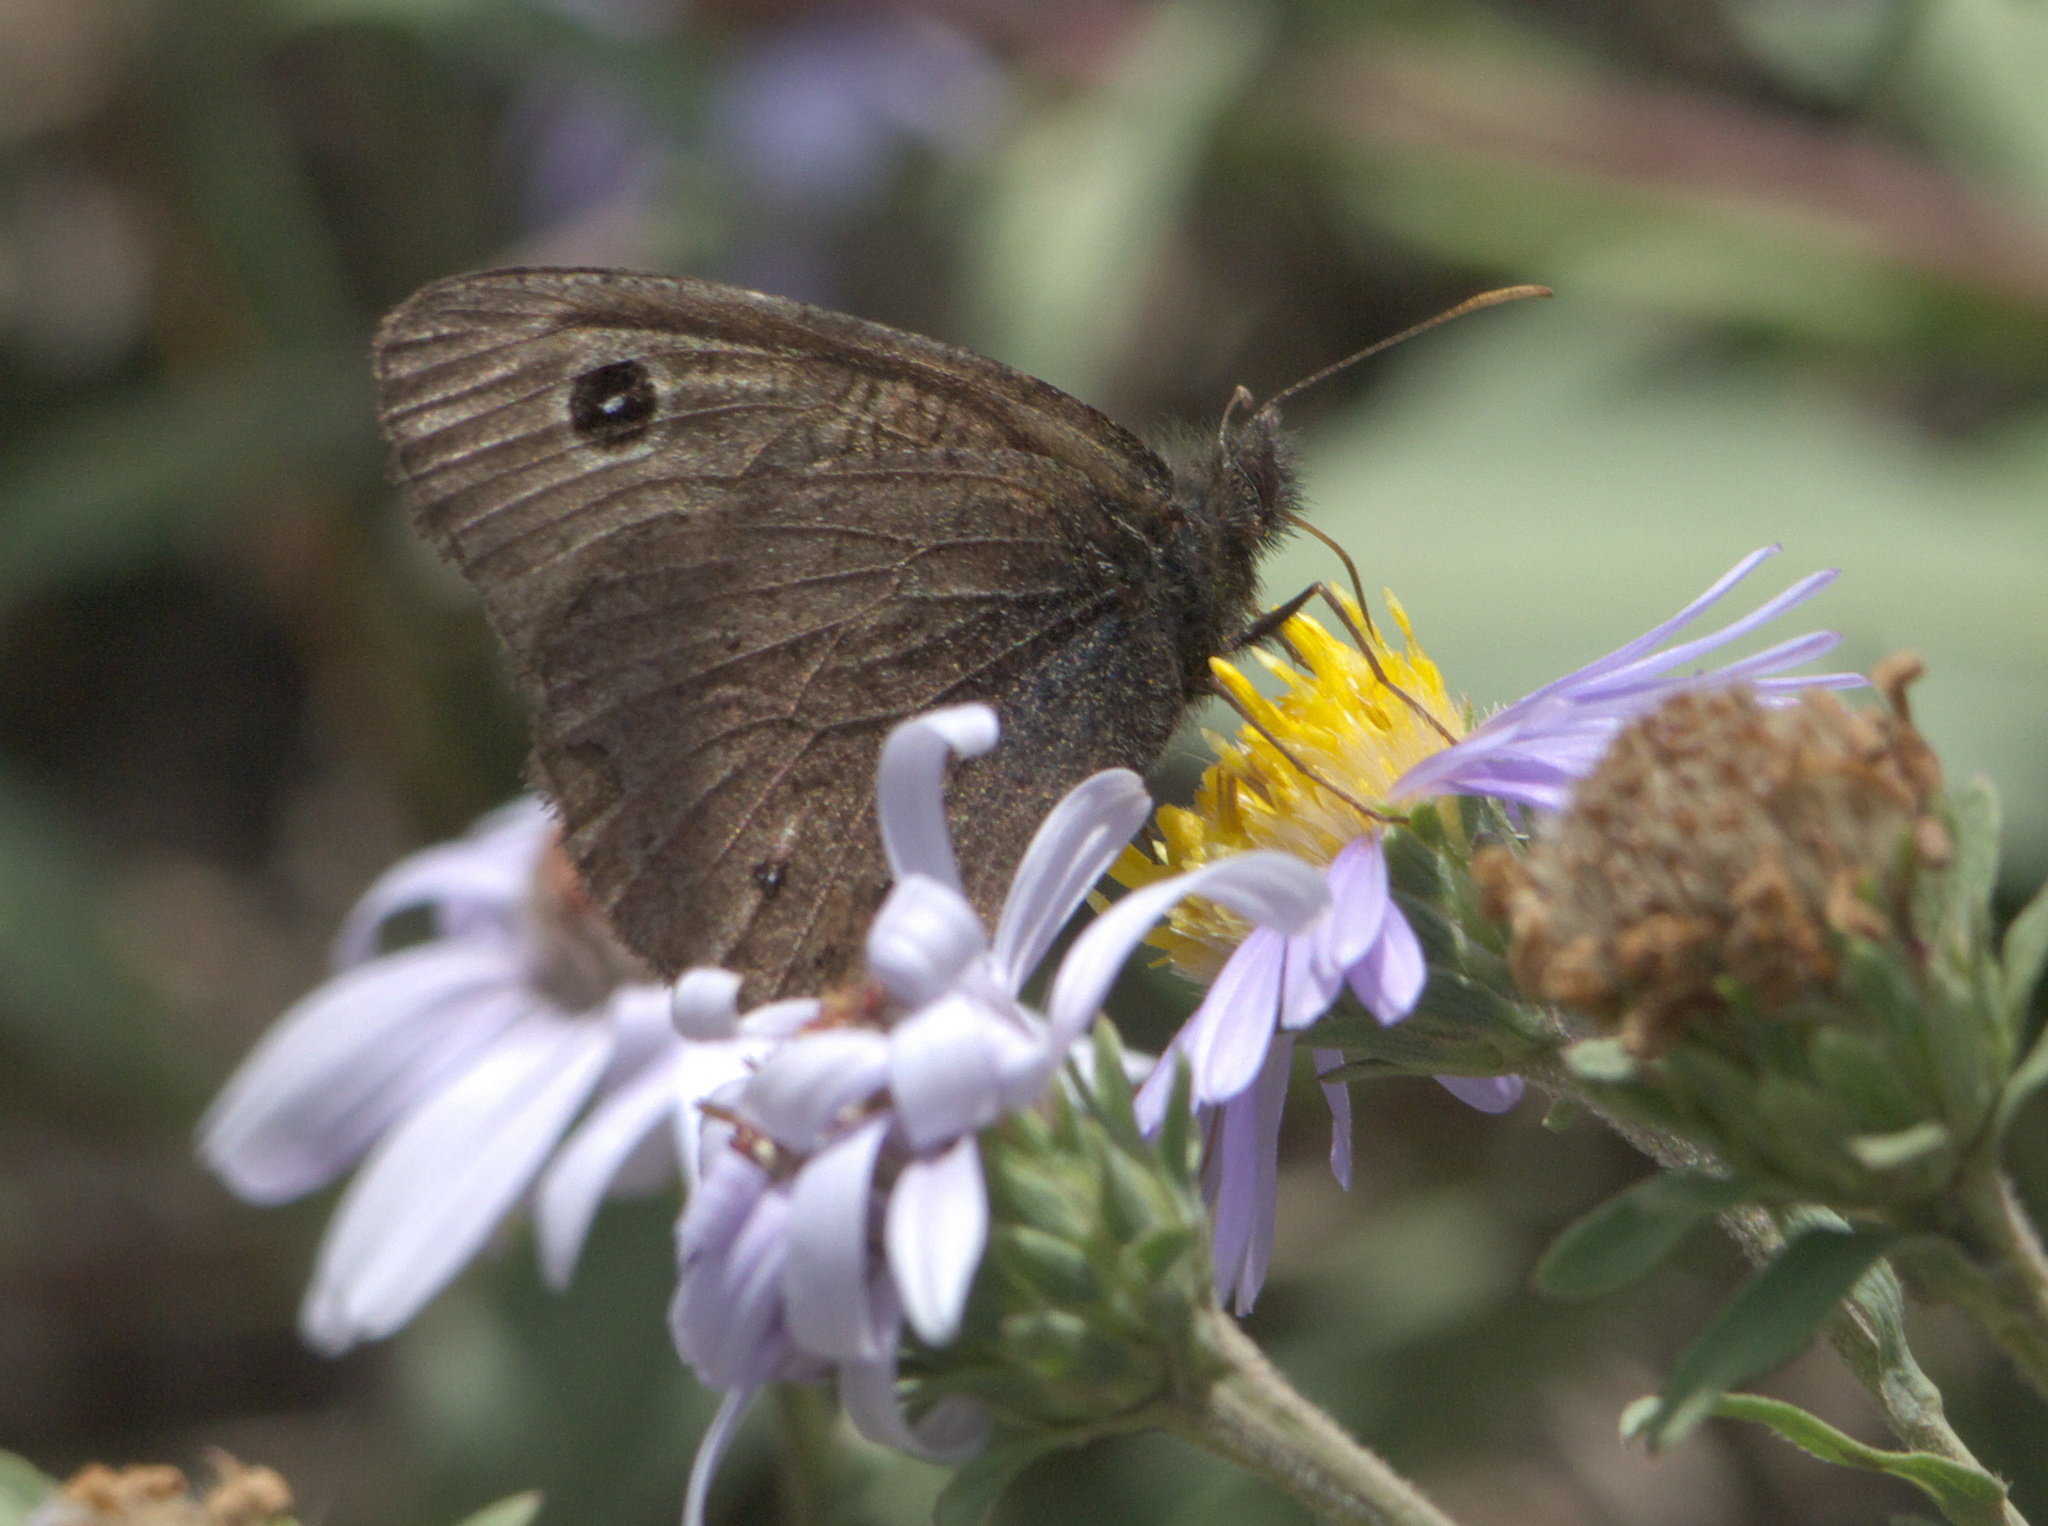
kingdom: Animalia
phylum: Arthropoda
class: Insecta
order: Lepidoptera
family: Nymphalidae
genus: Cercyonis
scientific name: Cercyonis oetus
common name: Small wood-nymph
